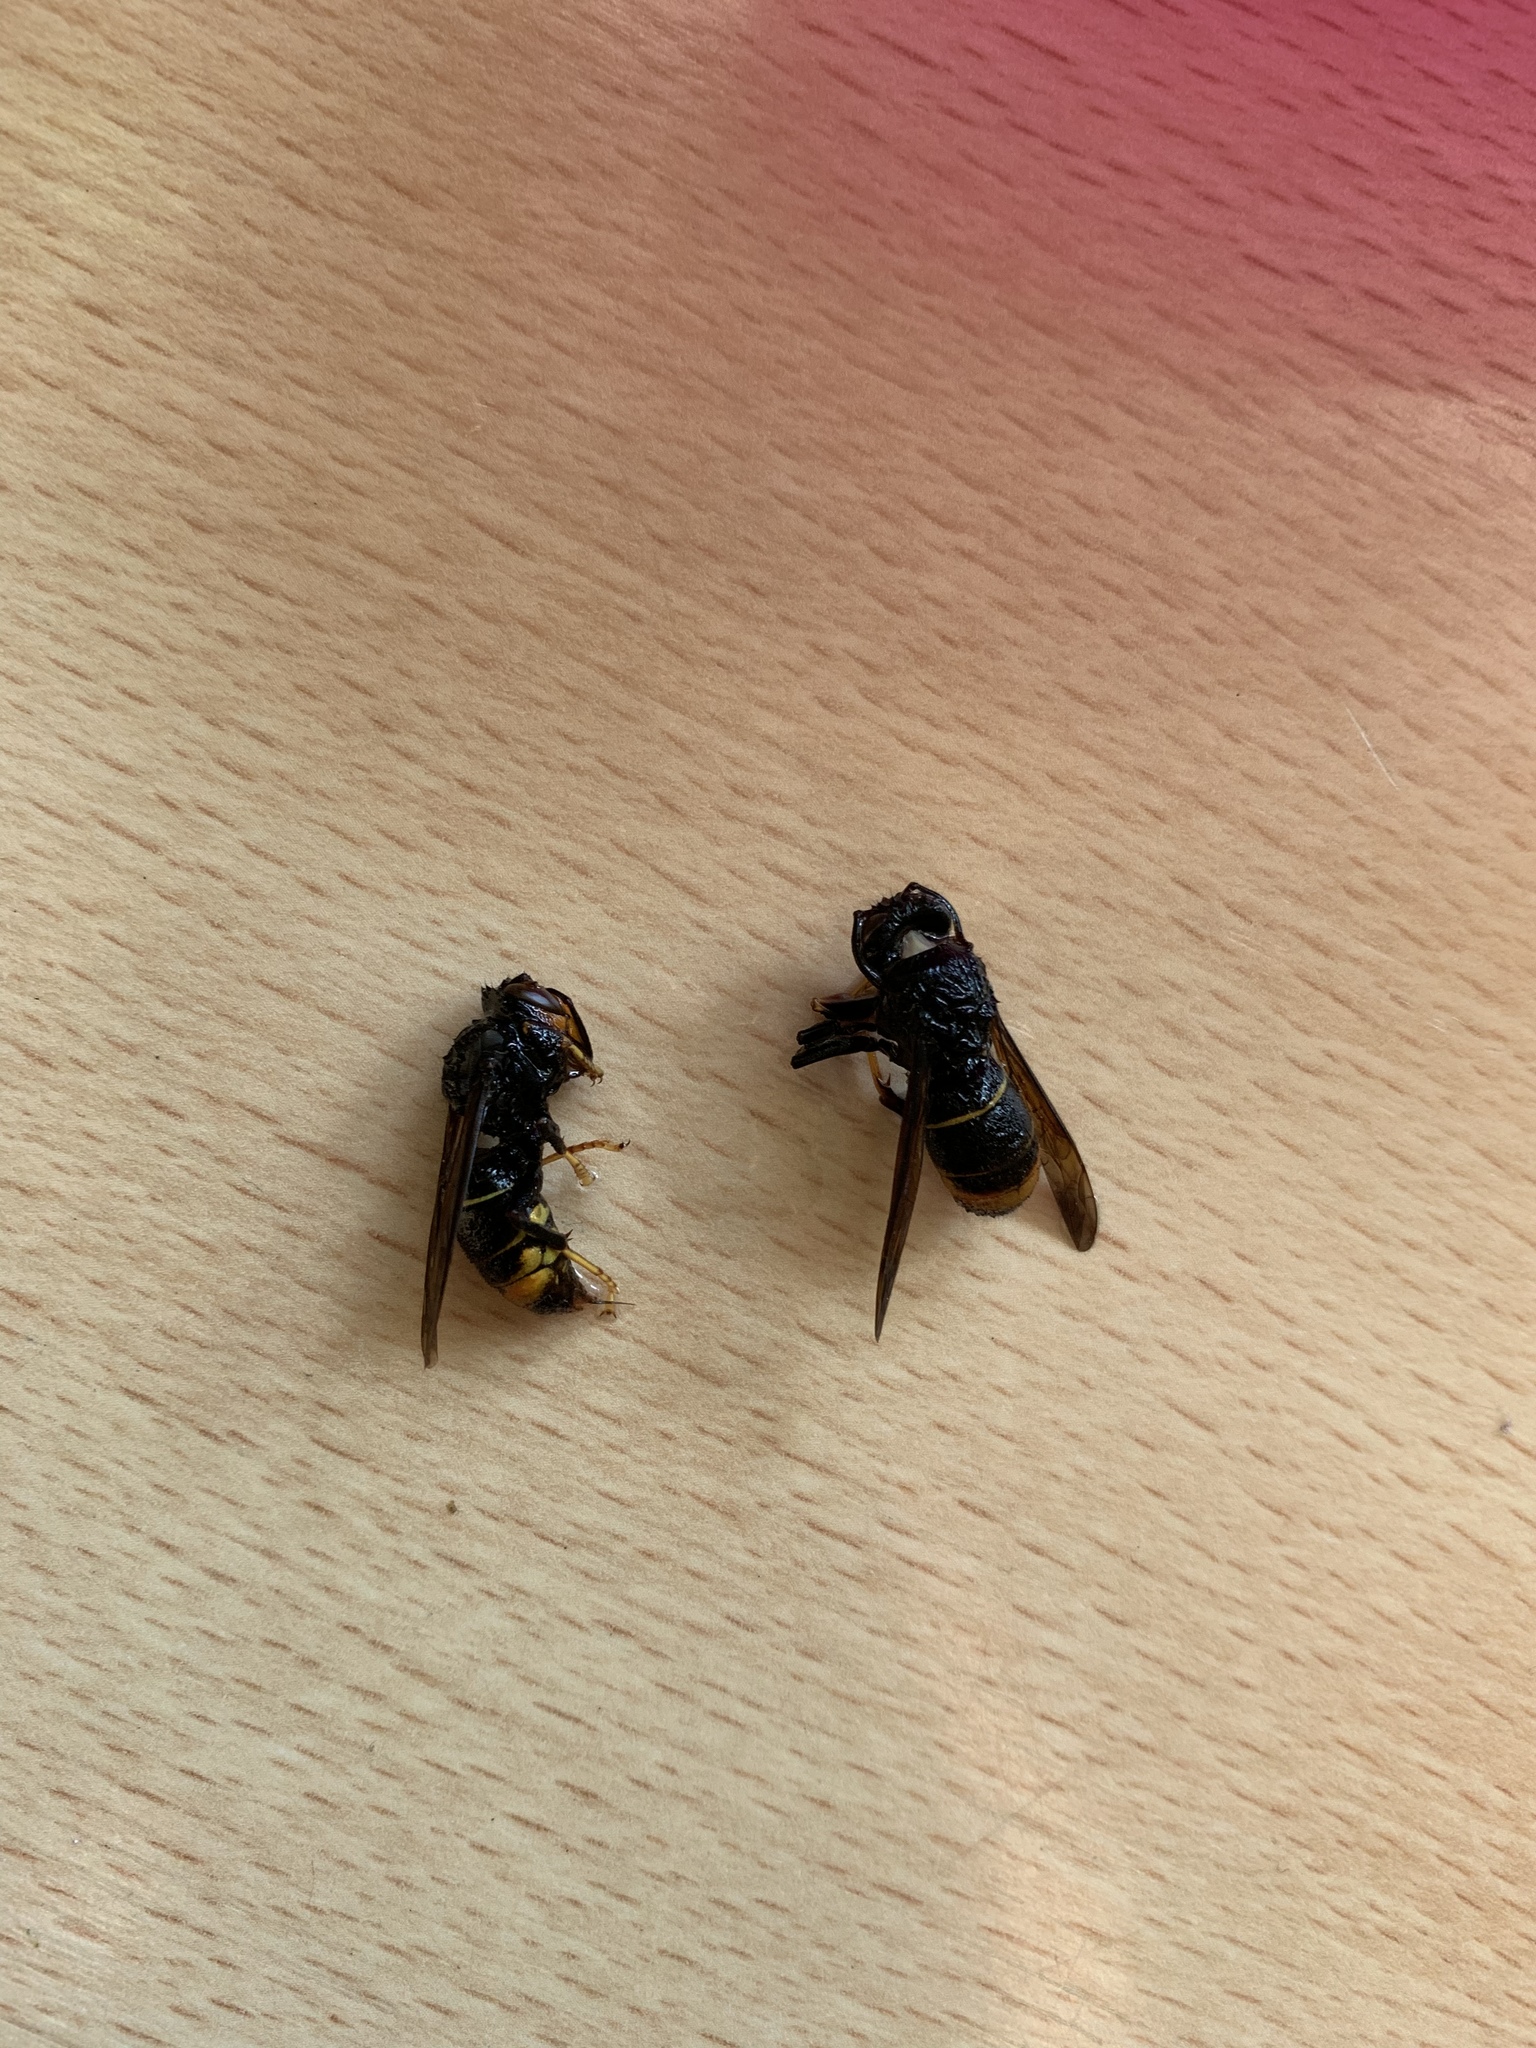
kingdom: Animalia
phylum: Arthropoda
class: Insecta
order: Hymenoptera
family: Vespidae
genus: Vespa
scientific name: Vespa velutina
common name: Asian hornet
